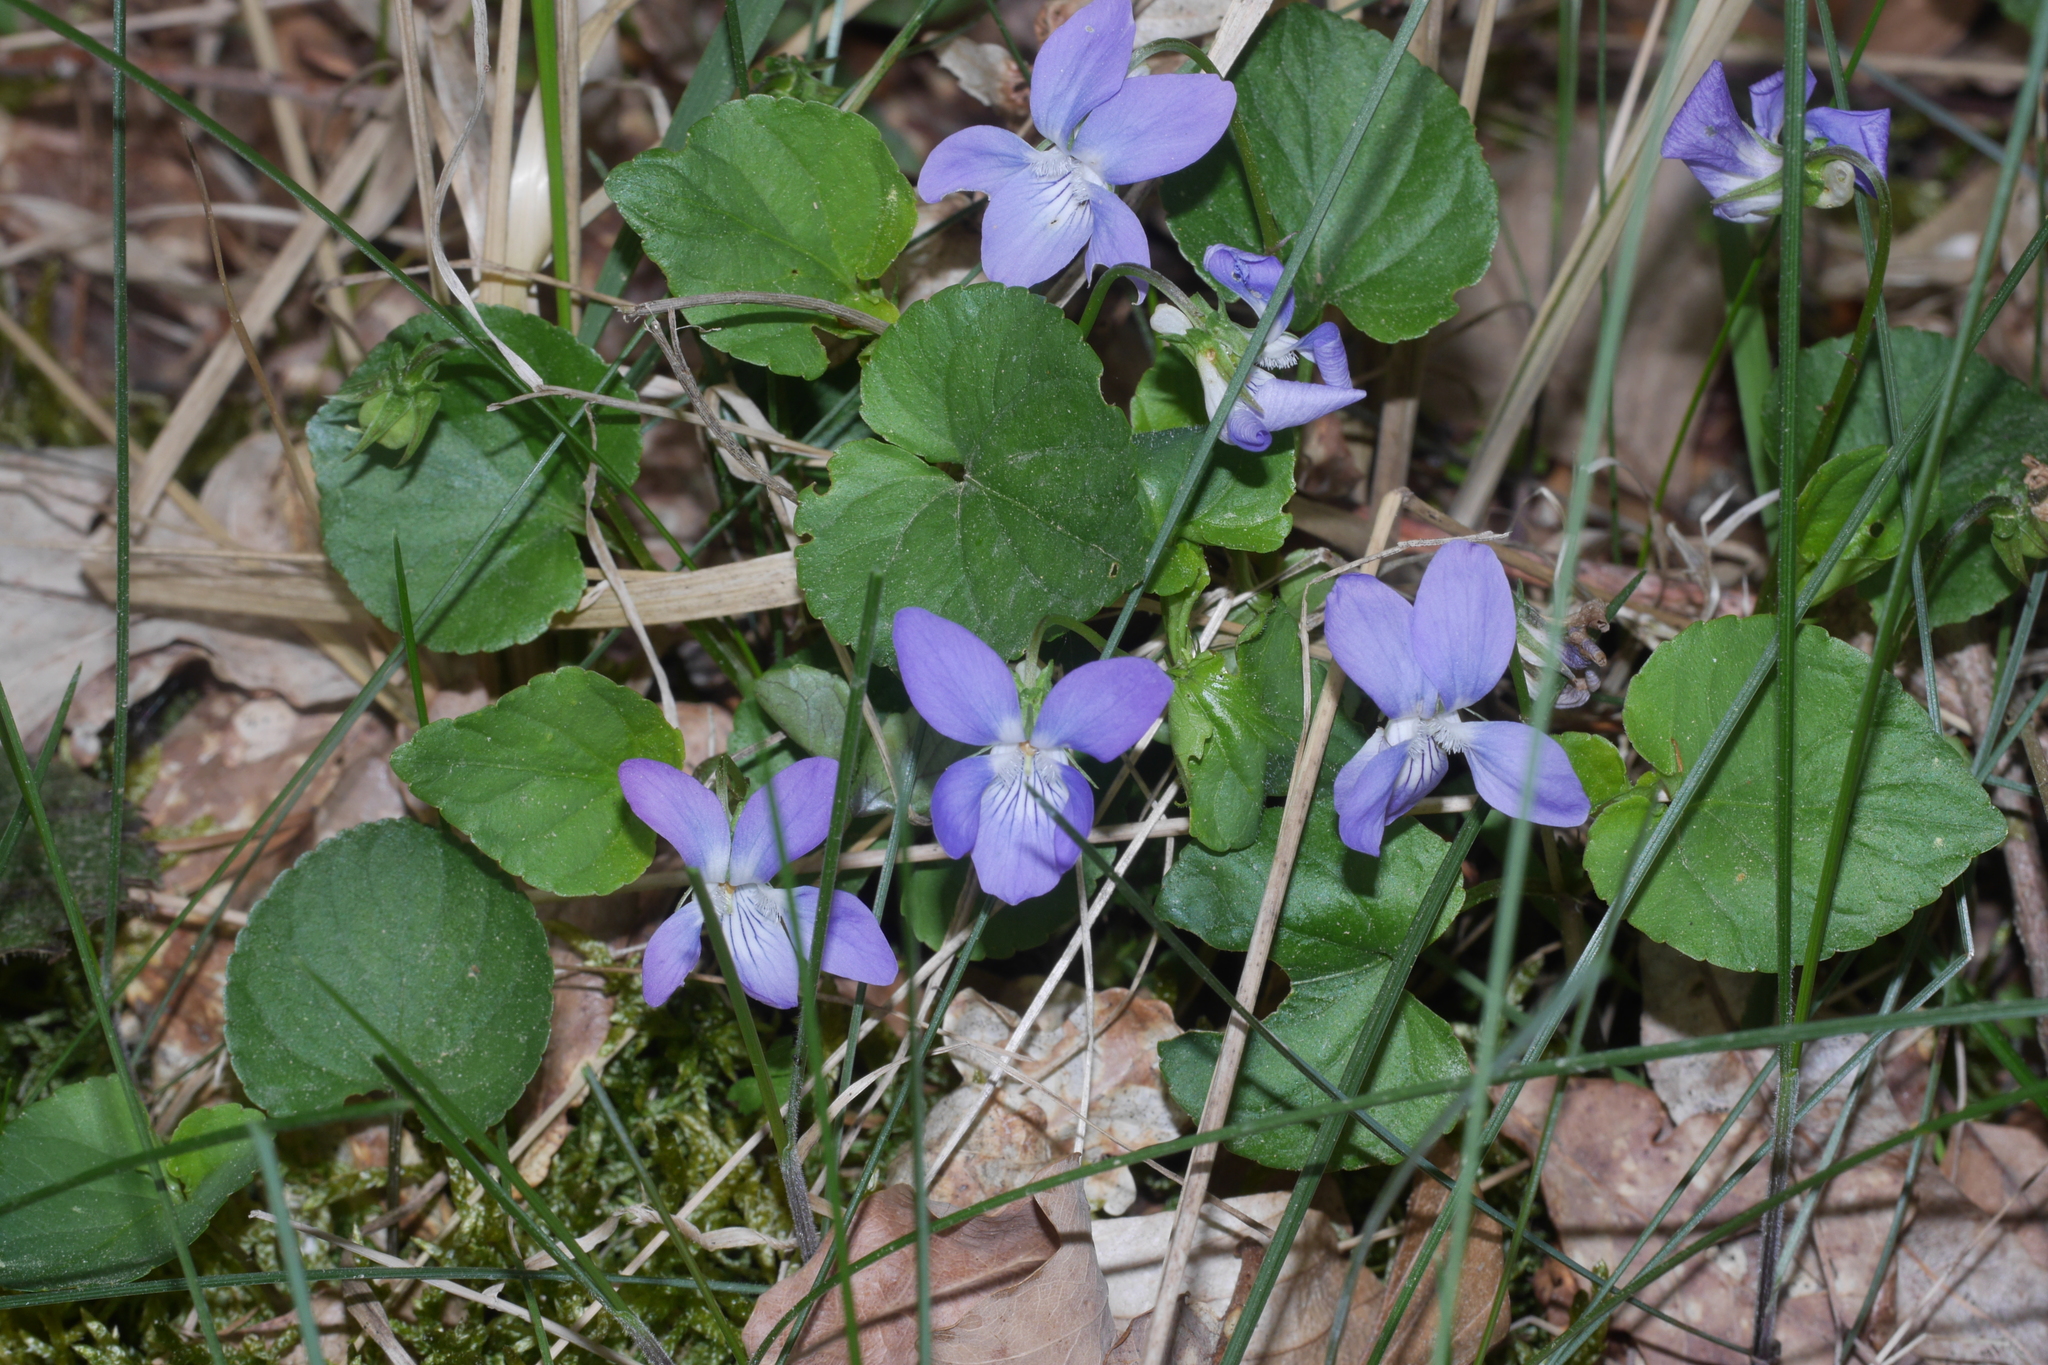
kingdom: Plantae
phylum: Tracheophyta
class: Magnoliopsida
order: Malpighiales
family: Violaceae
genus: Viola
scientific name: Viola riviniana
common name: Common dog-violet
